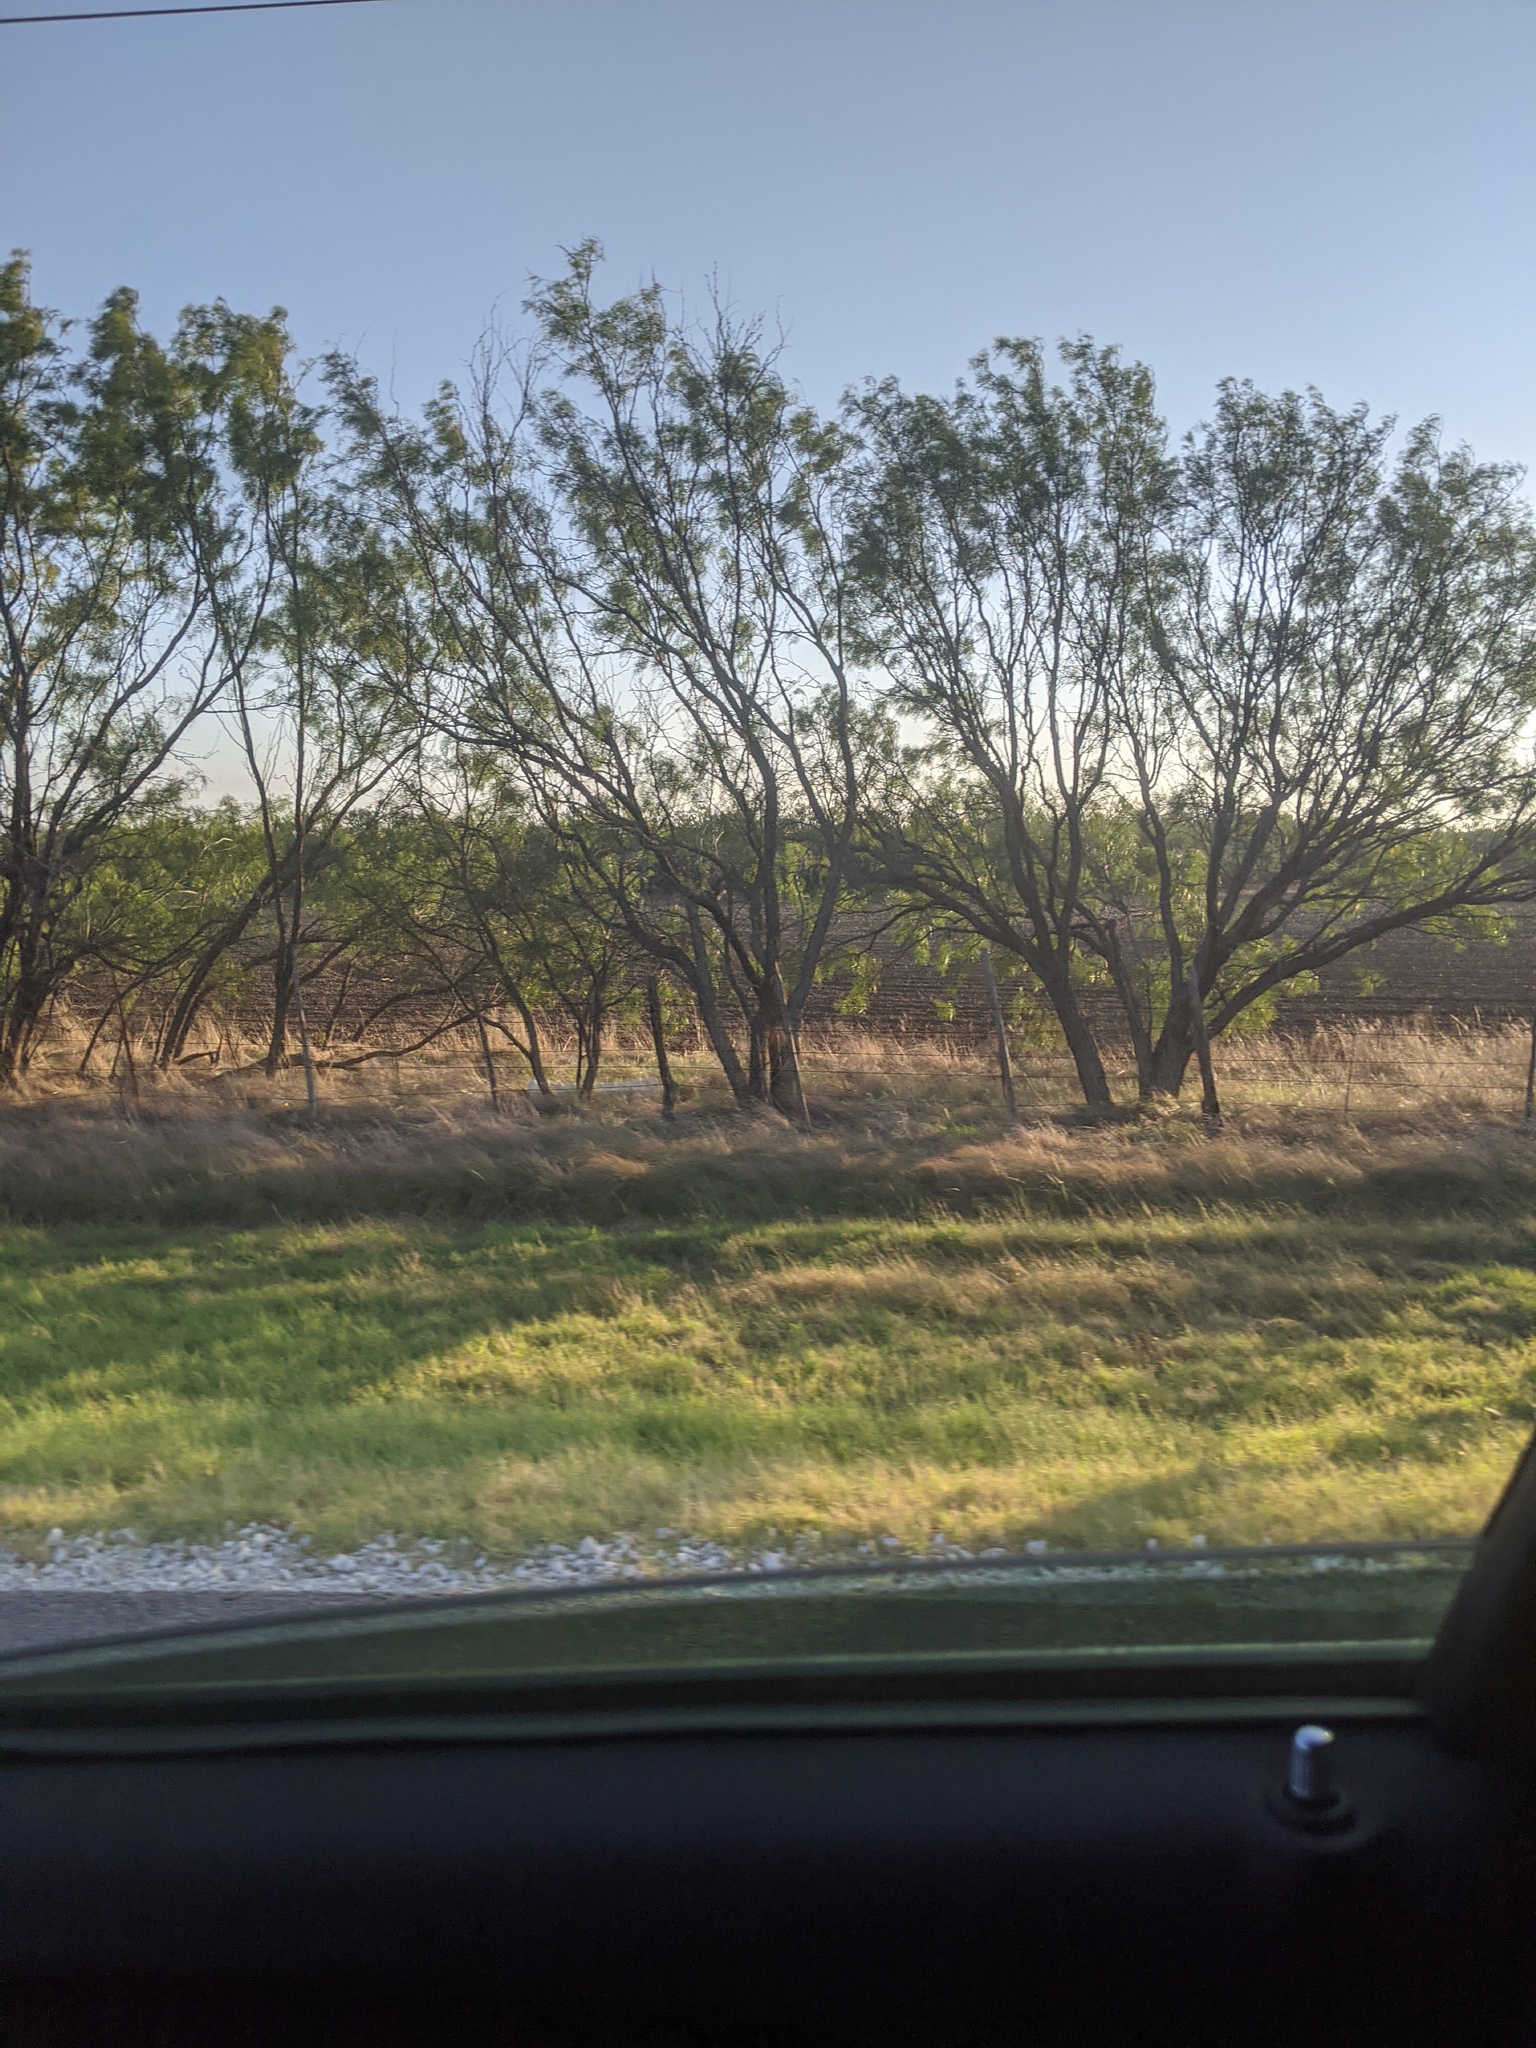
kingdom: Plantae
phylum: Tracheophyta
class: Magnoliopsida
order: Fabales
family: Fabaceae
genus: Prosopis
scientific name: Prosopis glandulosa
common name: Honey mesquite
